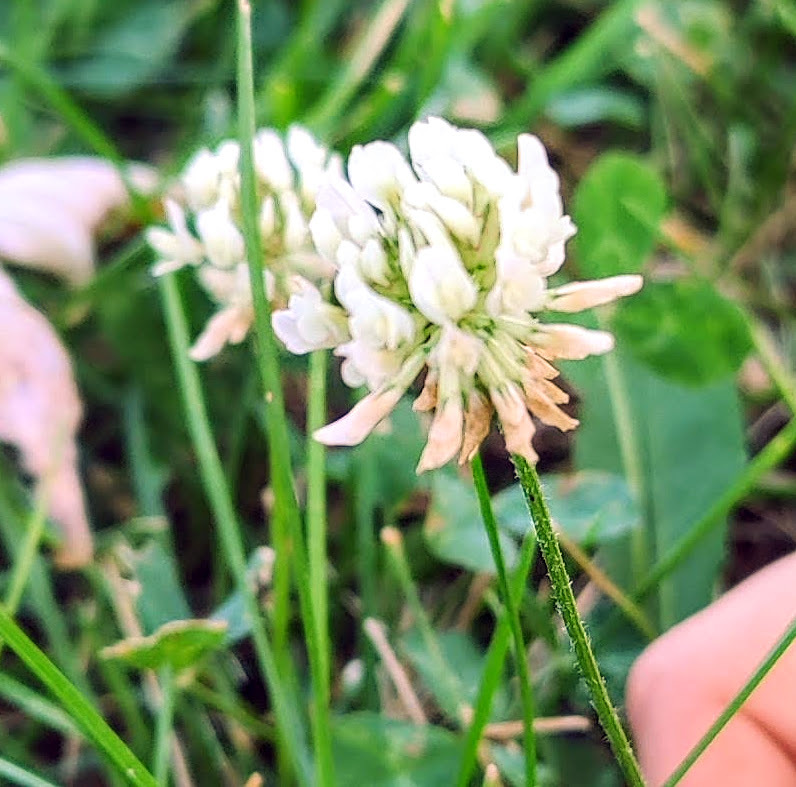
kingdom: Plantae
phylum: Tracheophyta
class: Magnoliopsida
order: Fabales
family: Fabaceae
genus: Trifolium
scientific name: Trifolium repens
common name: White clover
